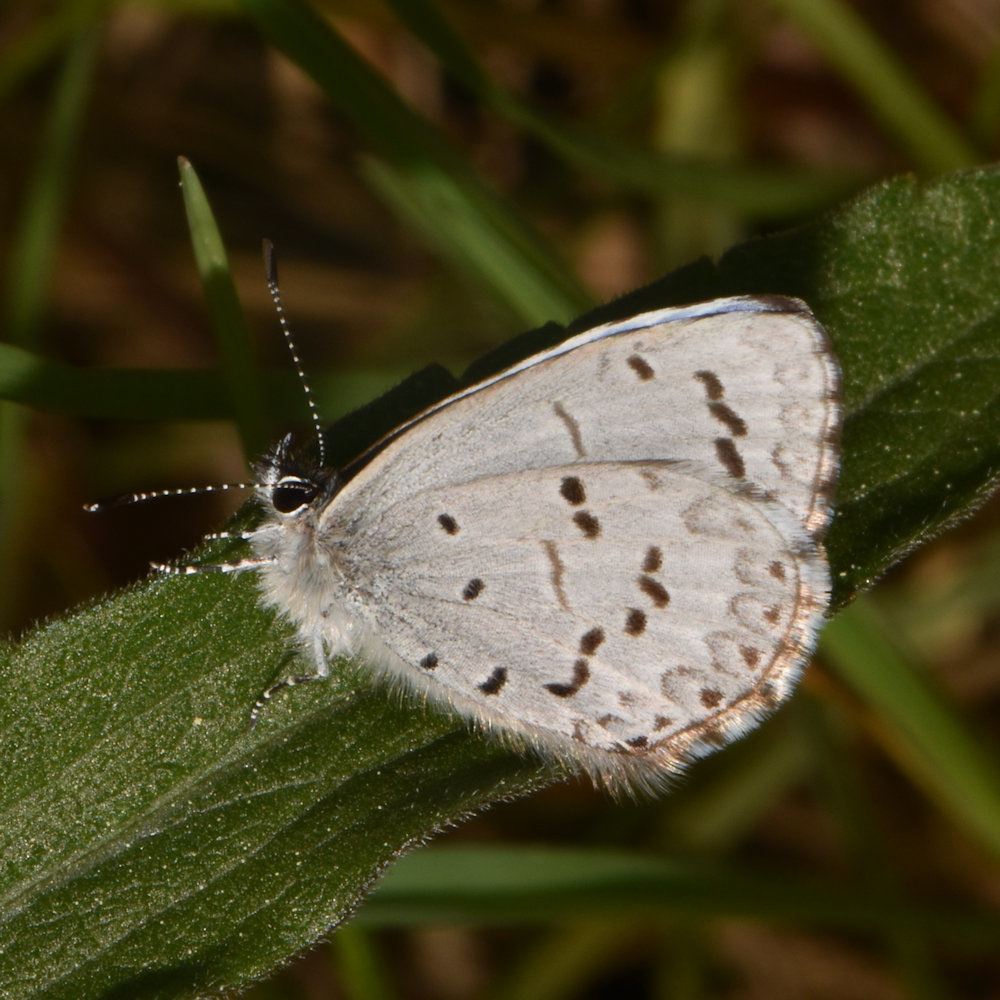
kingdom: Animalia
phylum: Arthropoda
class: Insecta
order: Lepidoptera
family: Lycaenidae
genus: Celastrina
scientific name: Celastrina lucia
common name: Lucia azure
